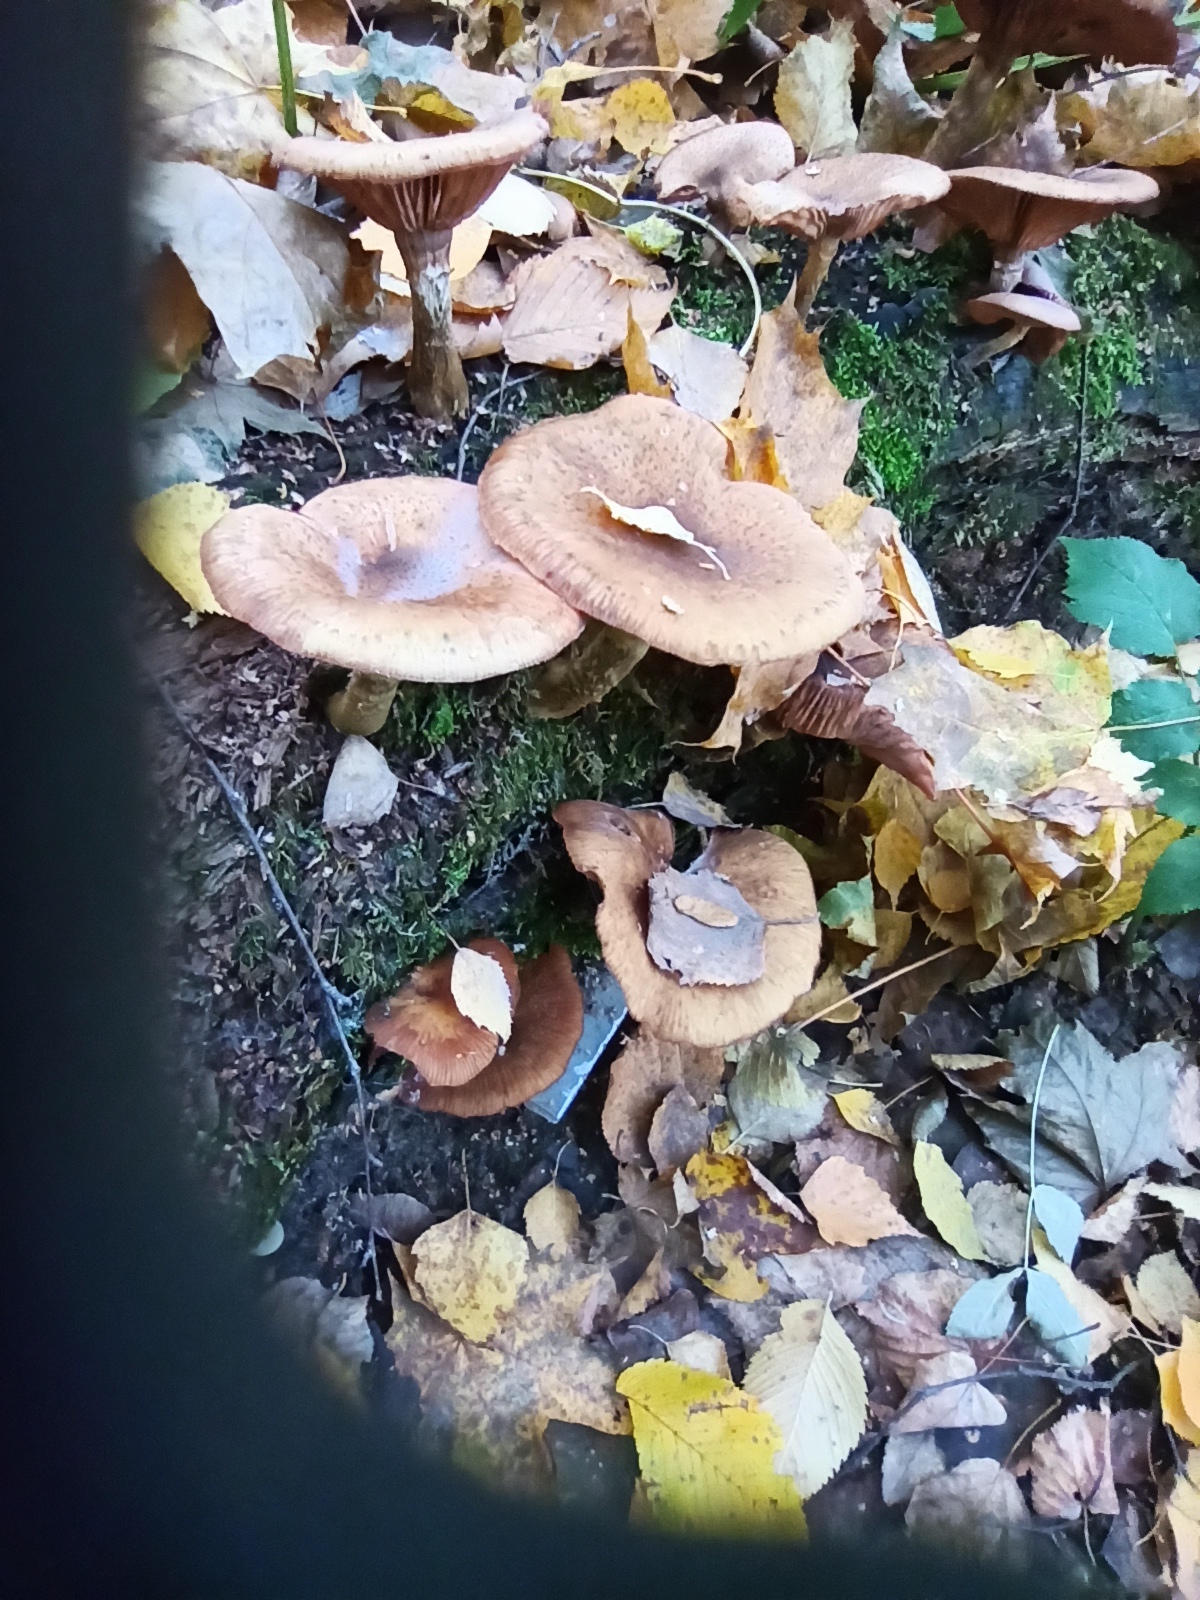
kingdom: Fungi
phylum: Basidiomycota
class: Agaricomycetes
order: Agaricales
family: Physalacriaceae
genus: Armillaria
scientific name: Armillaria cepistipes
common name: Mullet honey fungus
